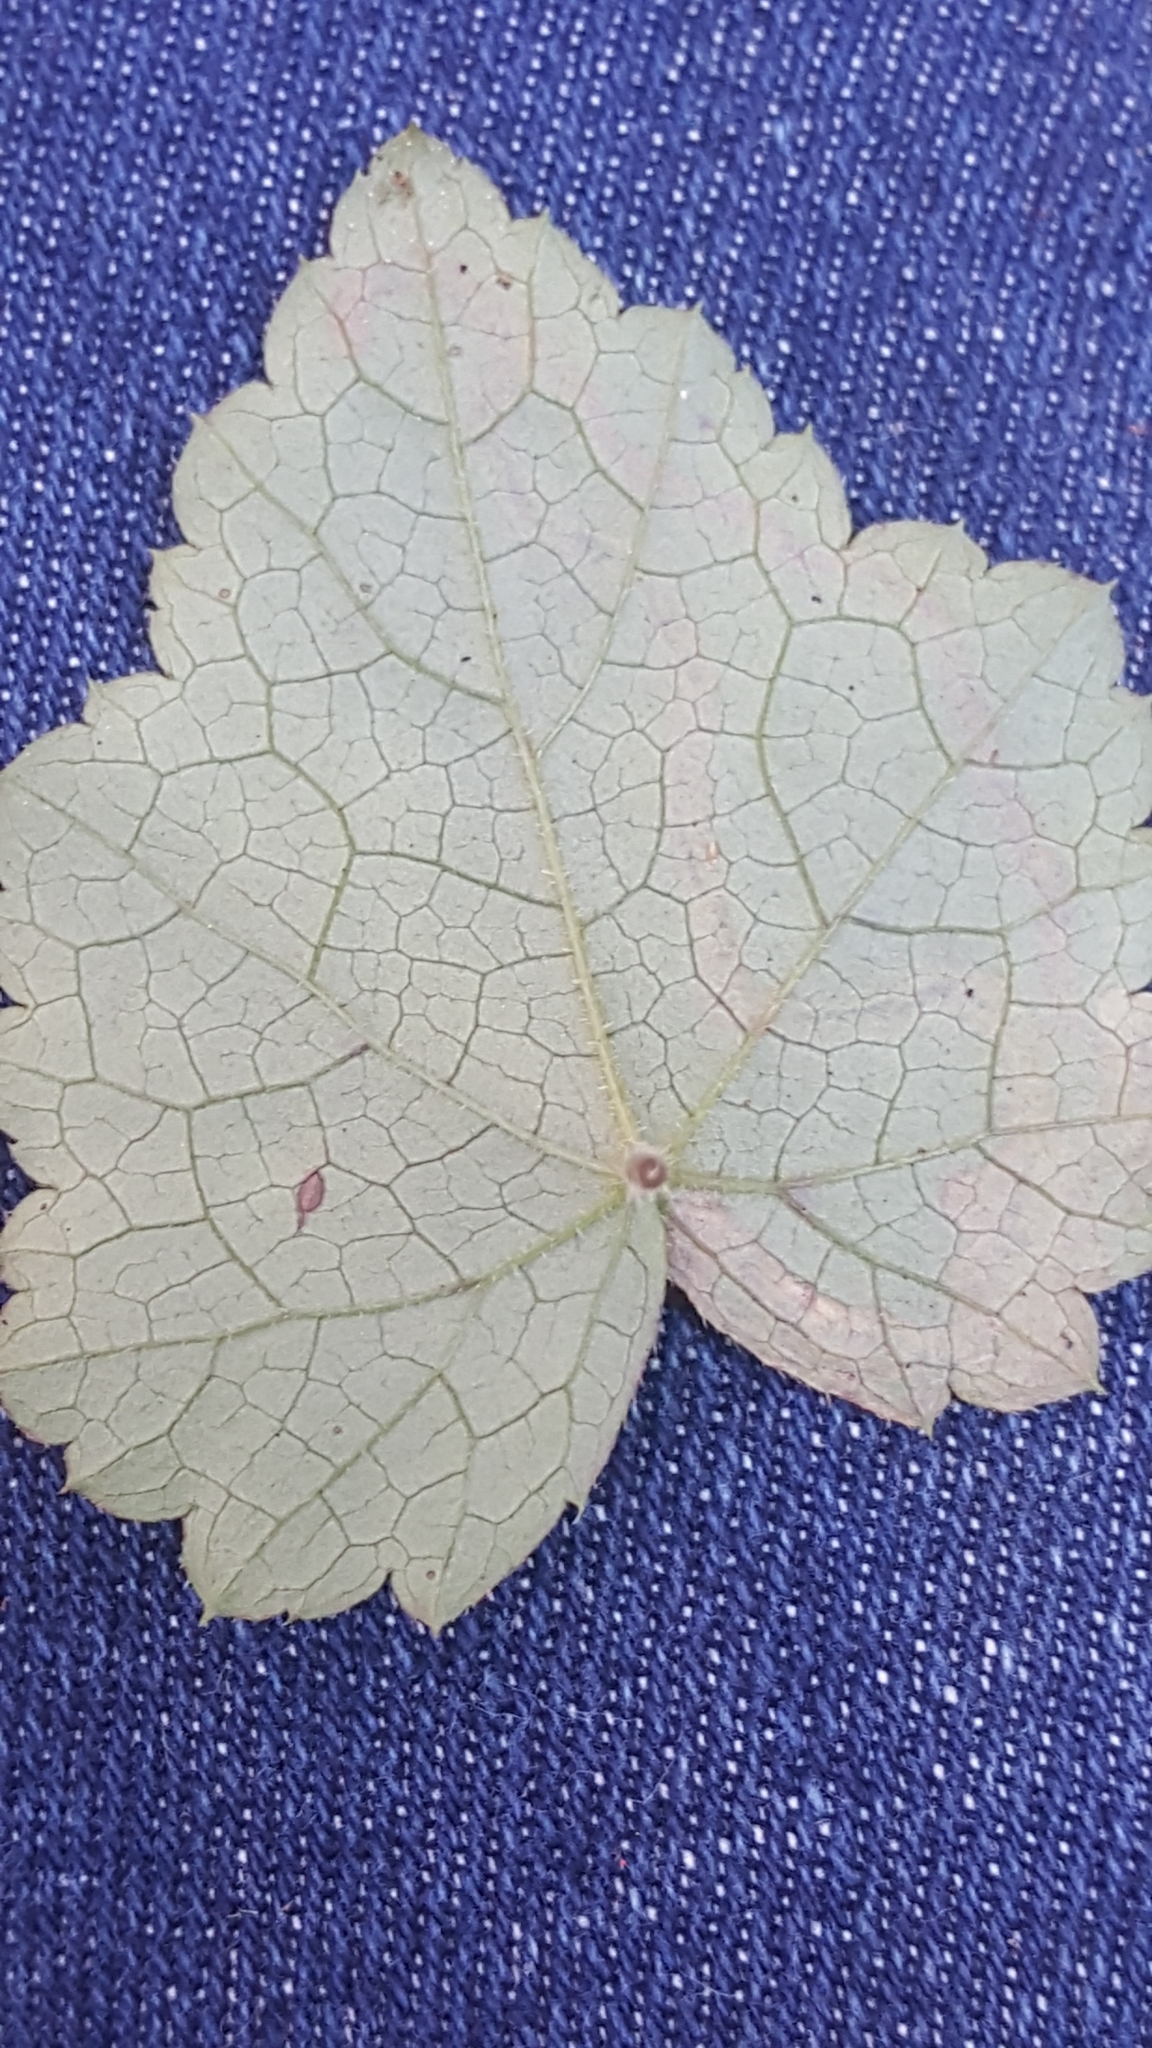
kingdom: Animalia
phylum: Arthropoda
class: Insecta
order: Diptera
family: Agromyzidae
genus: Phytomyza
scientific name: Phytomyza tigris
